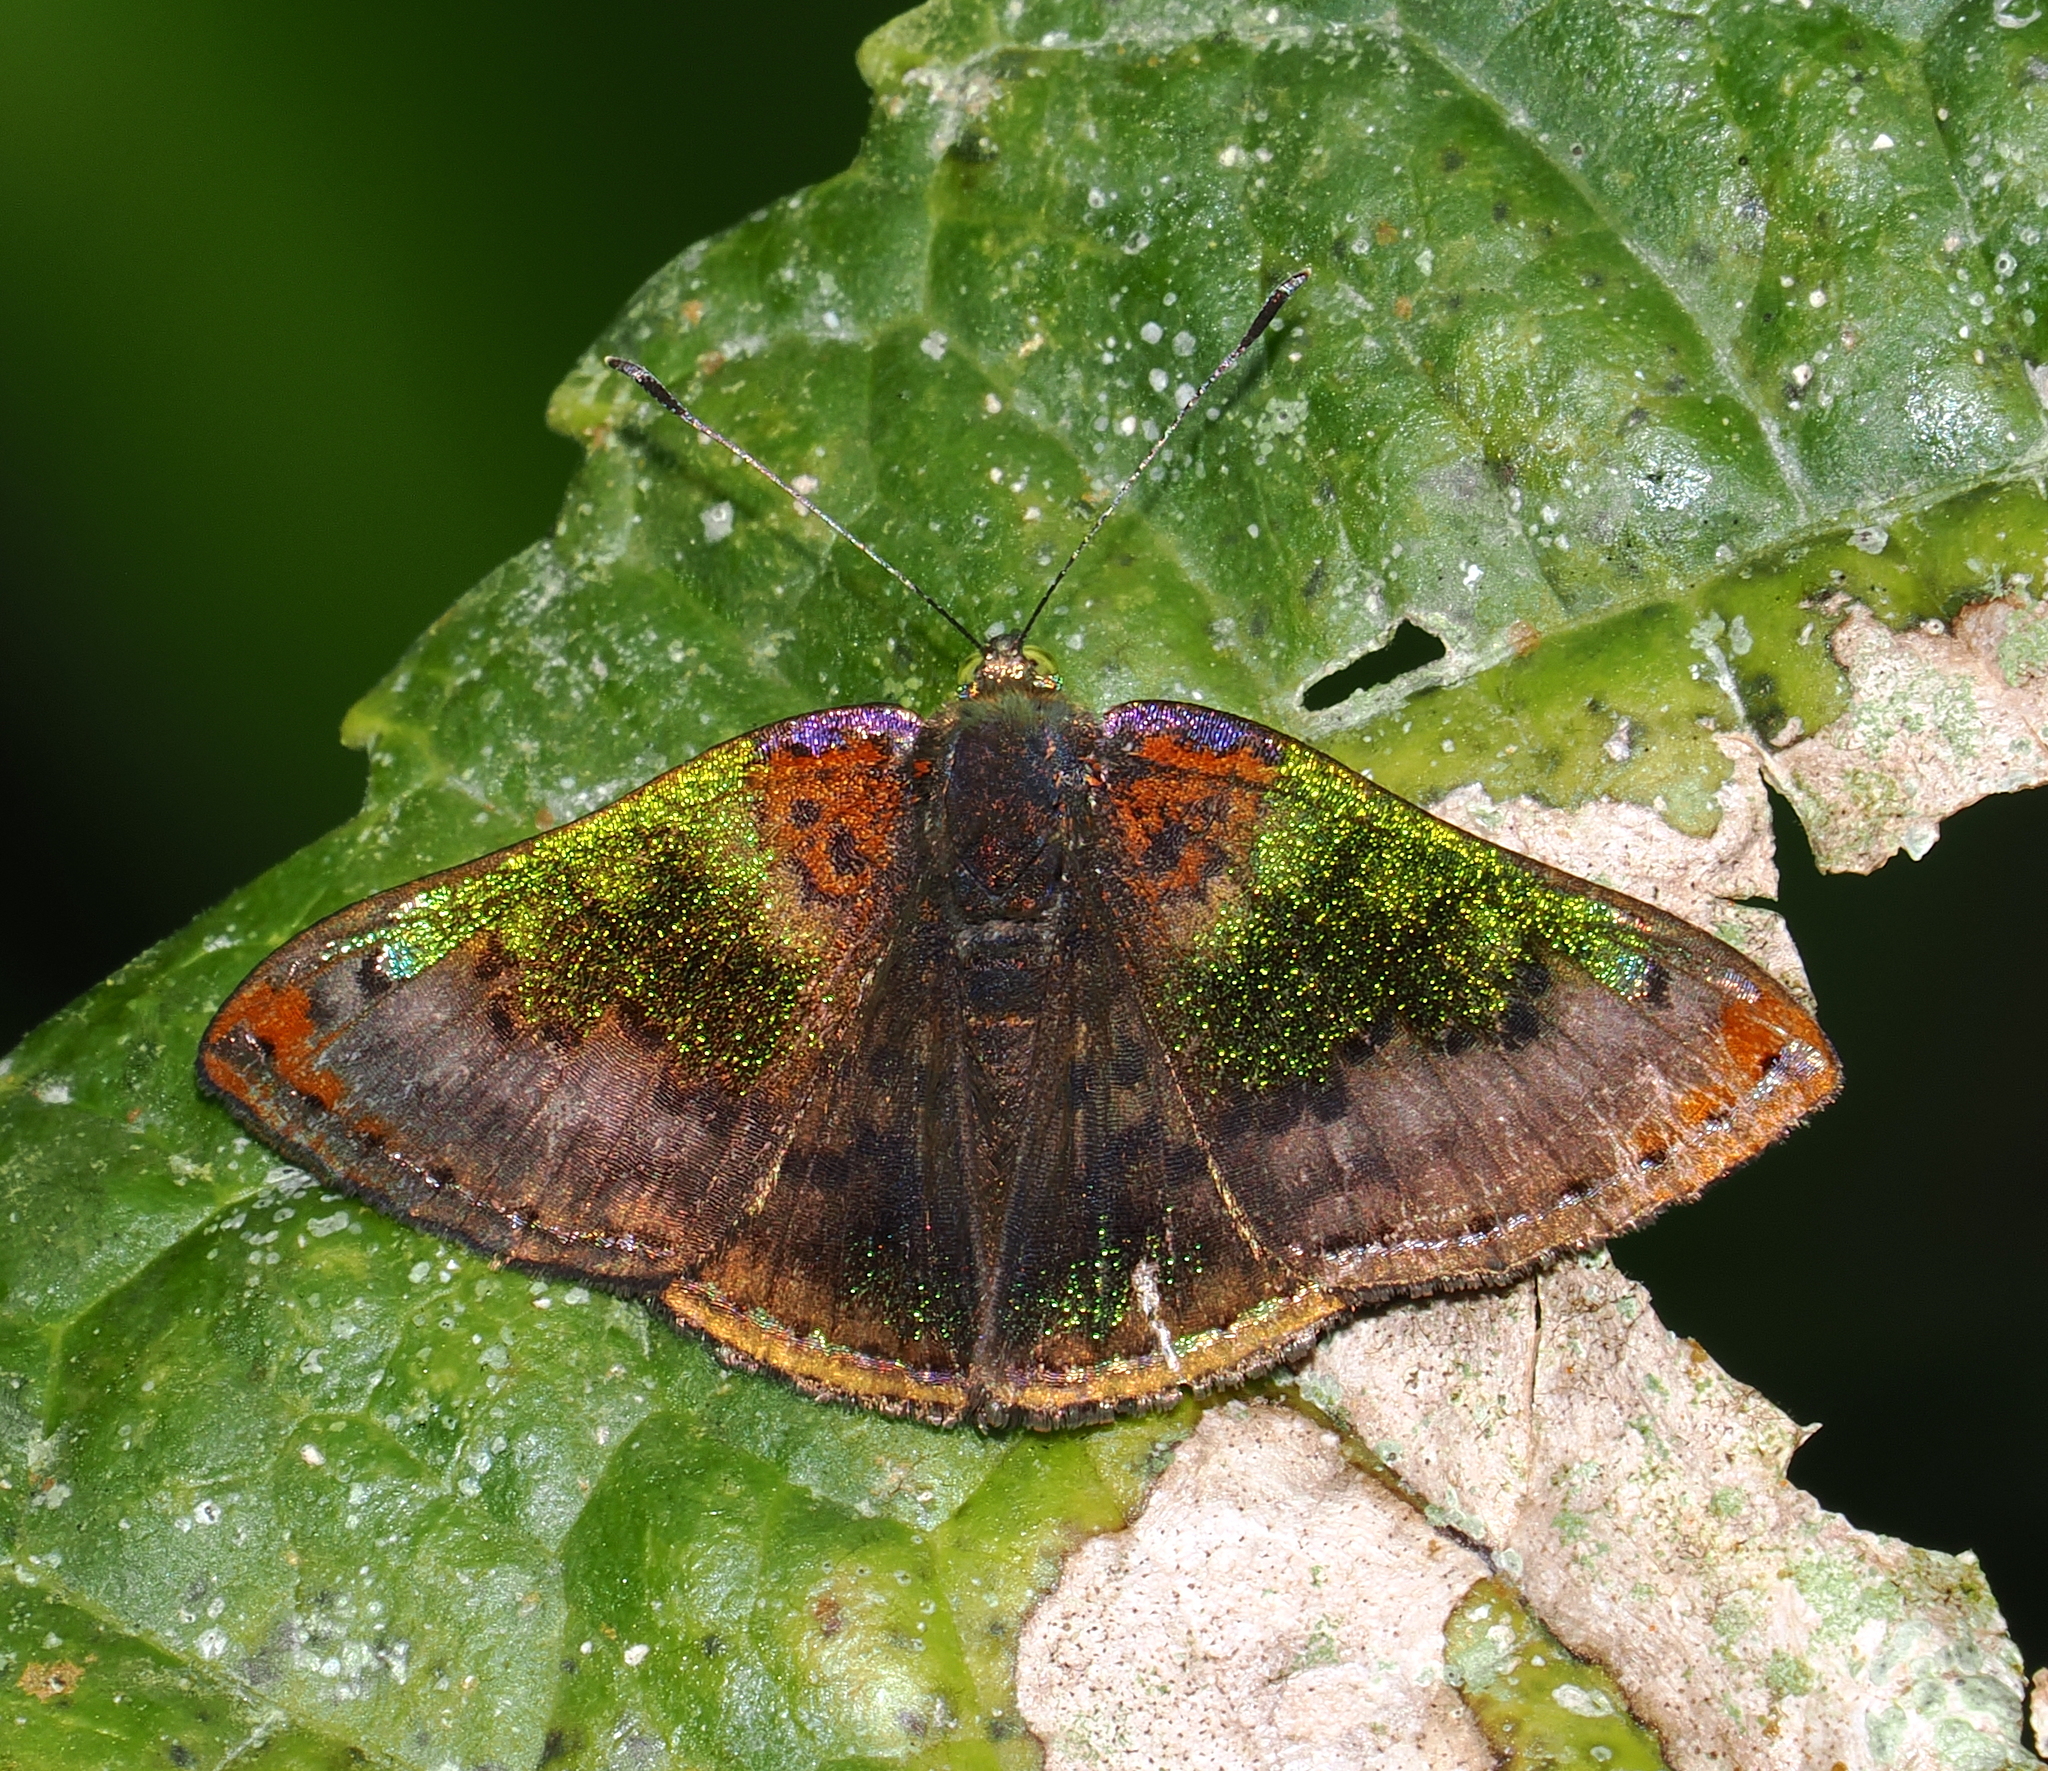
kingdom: Animalia
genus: Caria
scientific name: Caria rhacotis
